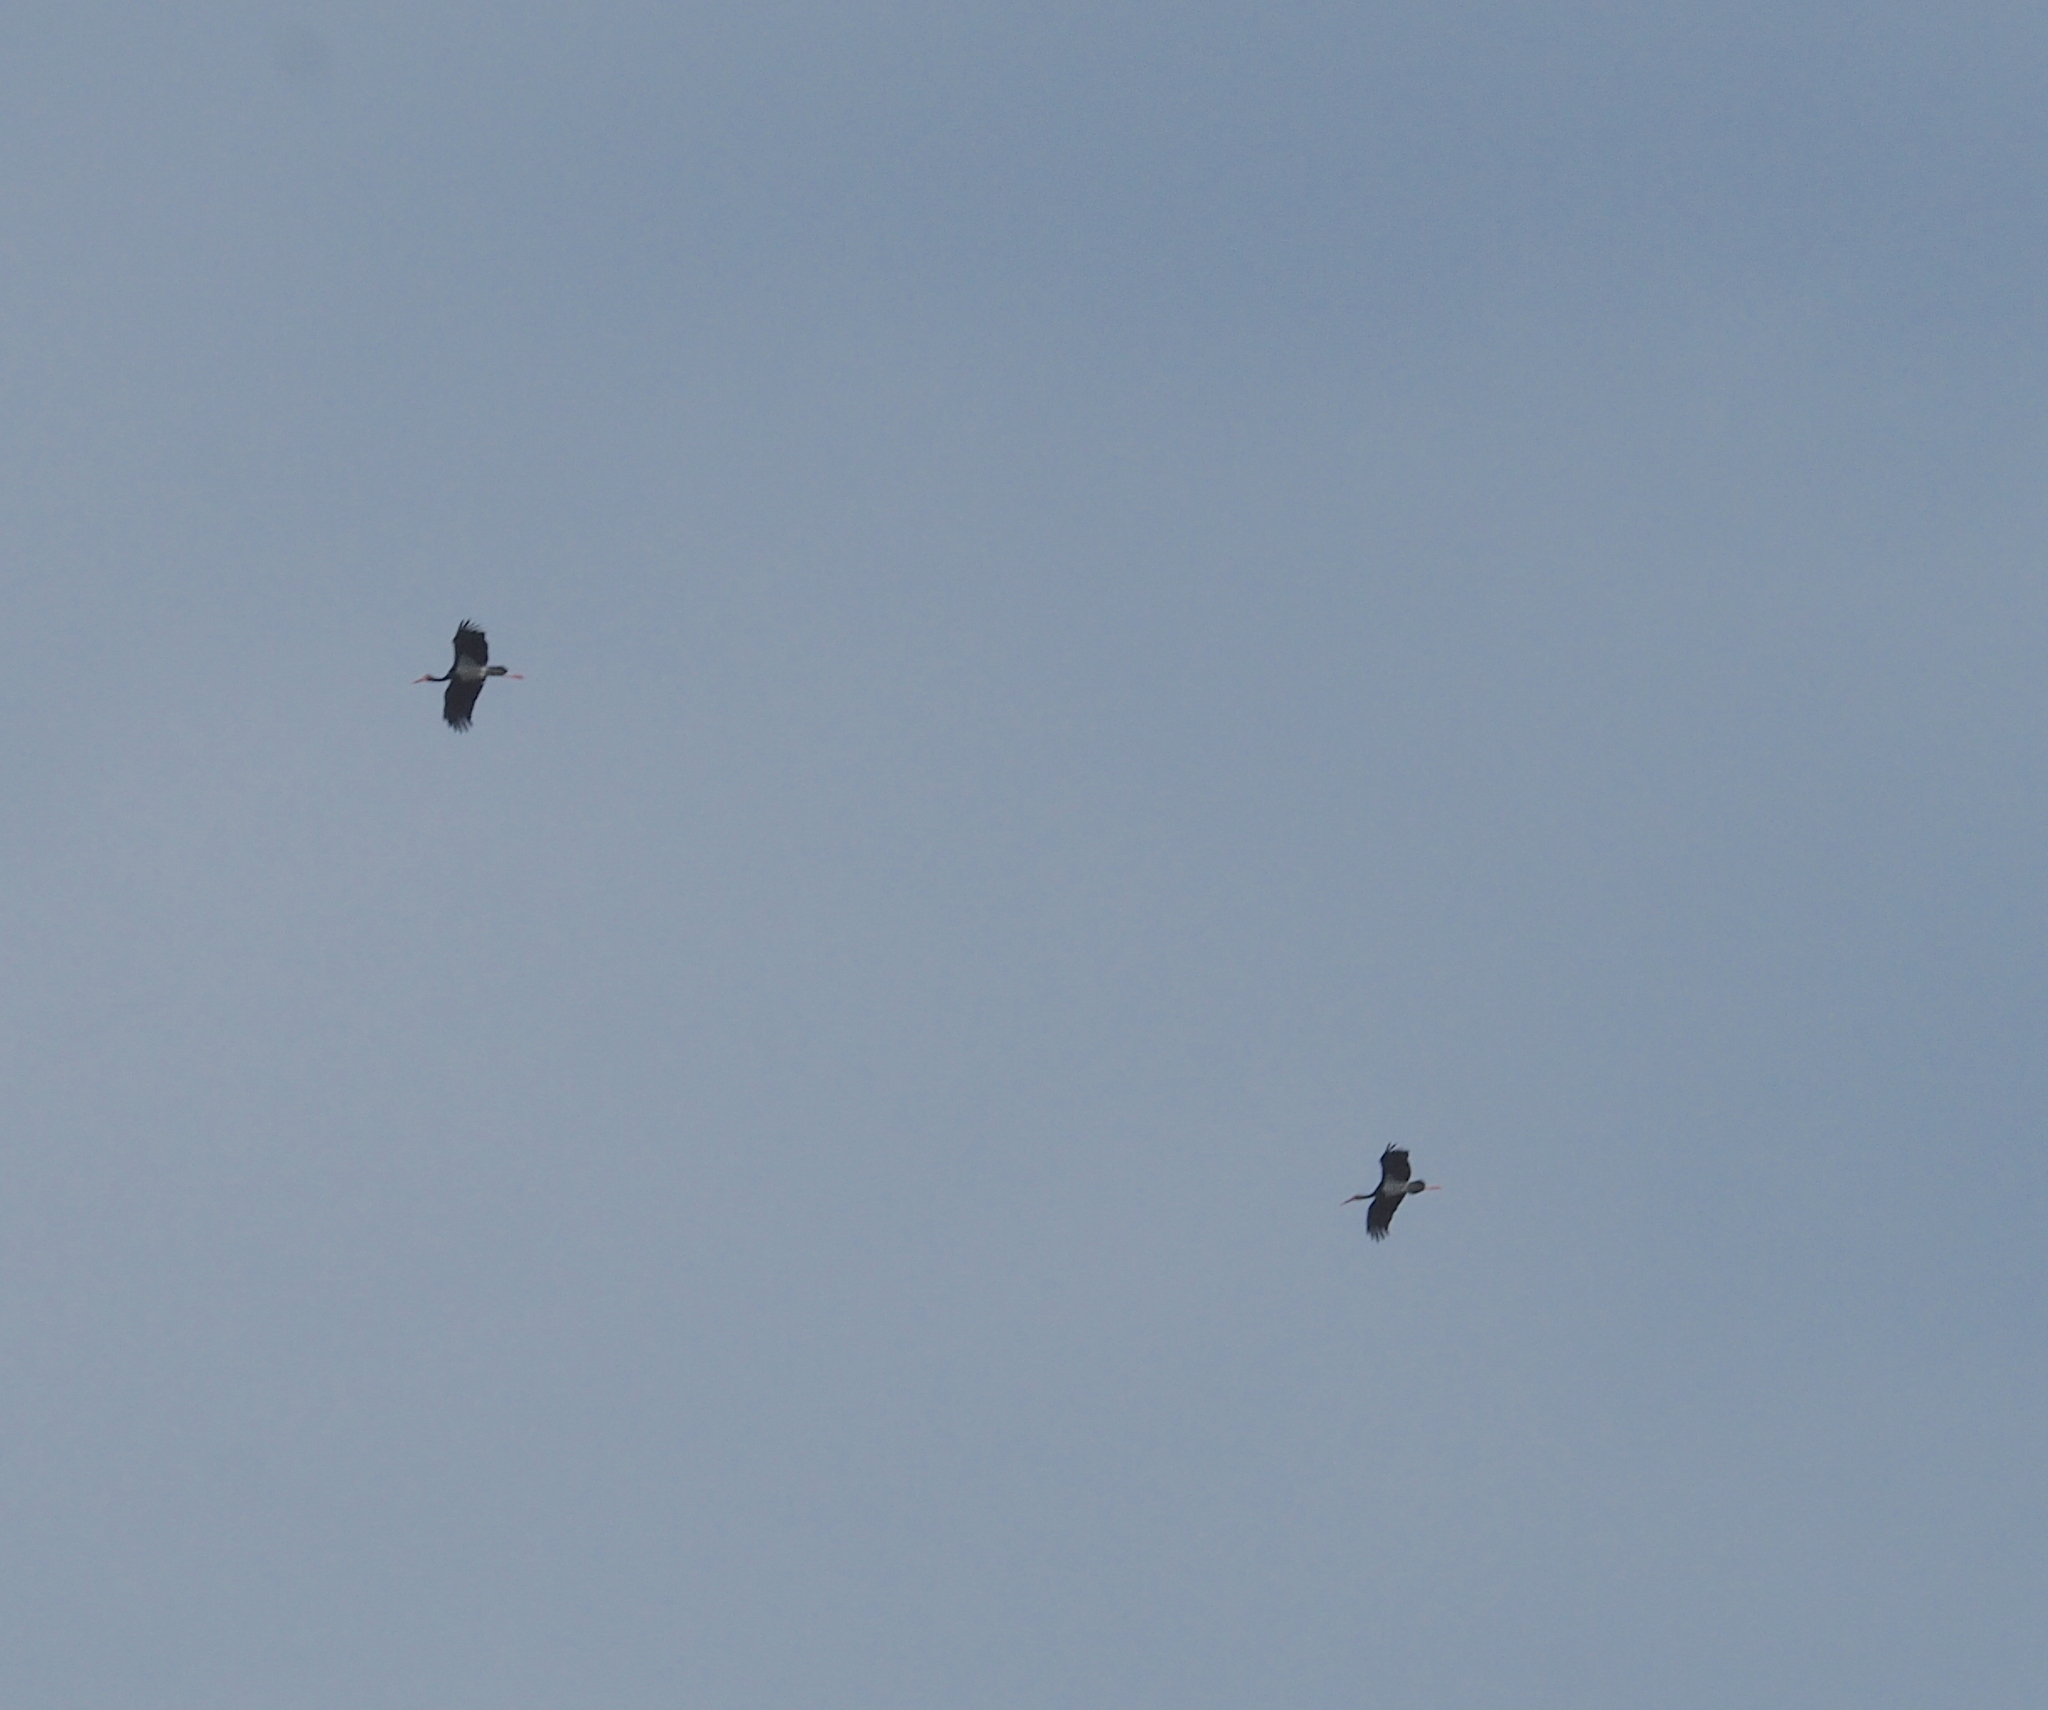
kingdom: Animalia
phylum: Chordata
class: Aves
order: Ciconiiformes
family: Ciconiidae
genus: Ciconia
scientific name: Ciconia nigra
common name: Black stork
